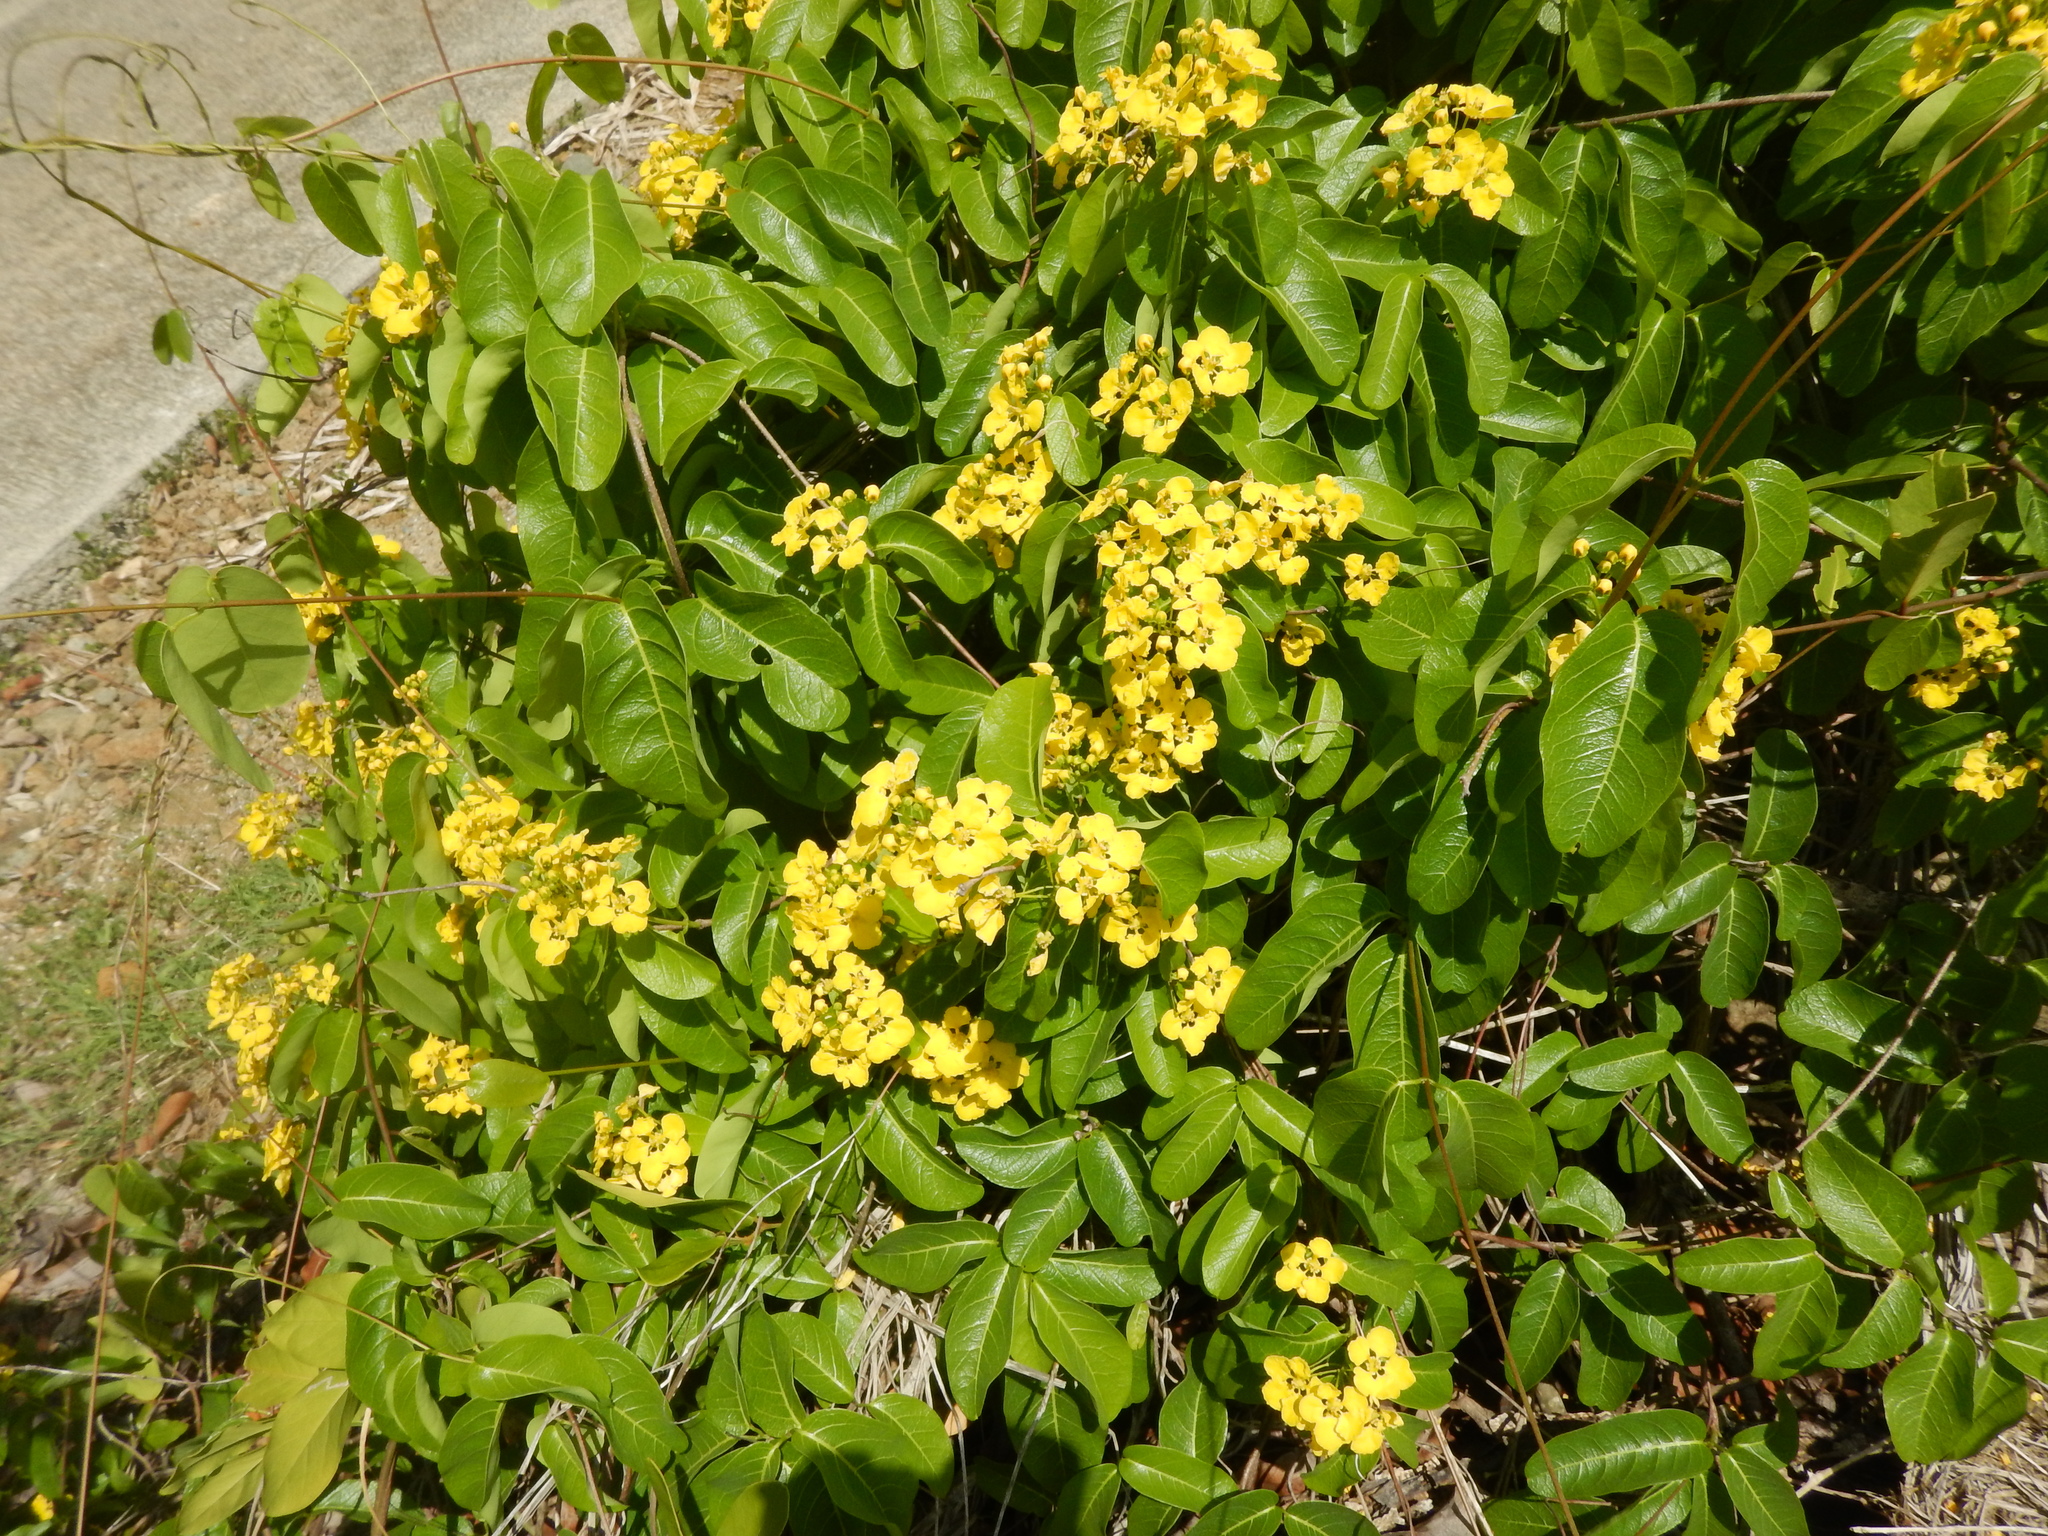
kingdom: Plantae
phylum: Tracheophyta
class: Magnoliopsida
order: Malpighiales
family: Malpighiaceae
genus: Stigmaphyllon
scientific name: Stigmaphyllon emarginatum
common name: Monarch amazonvine
